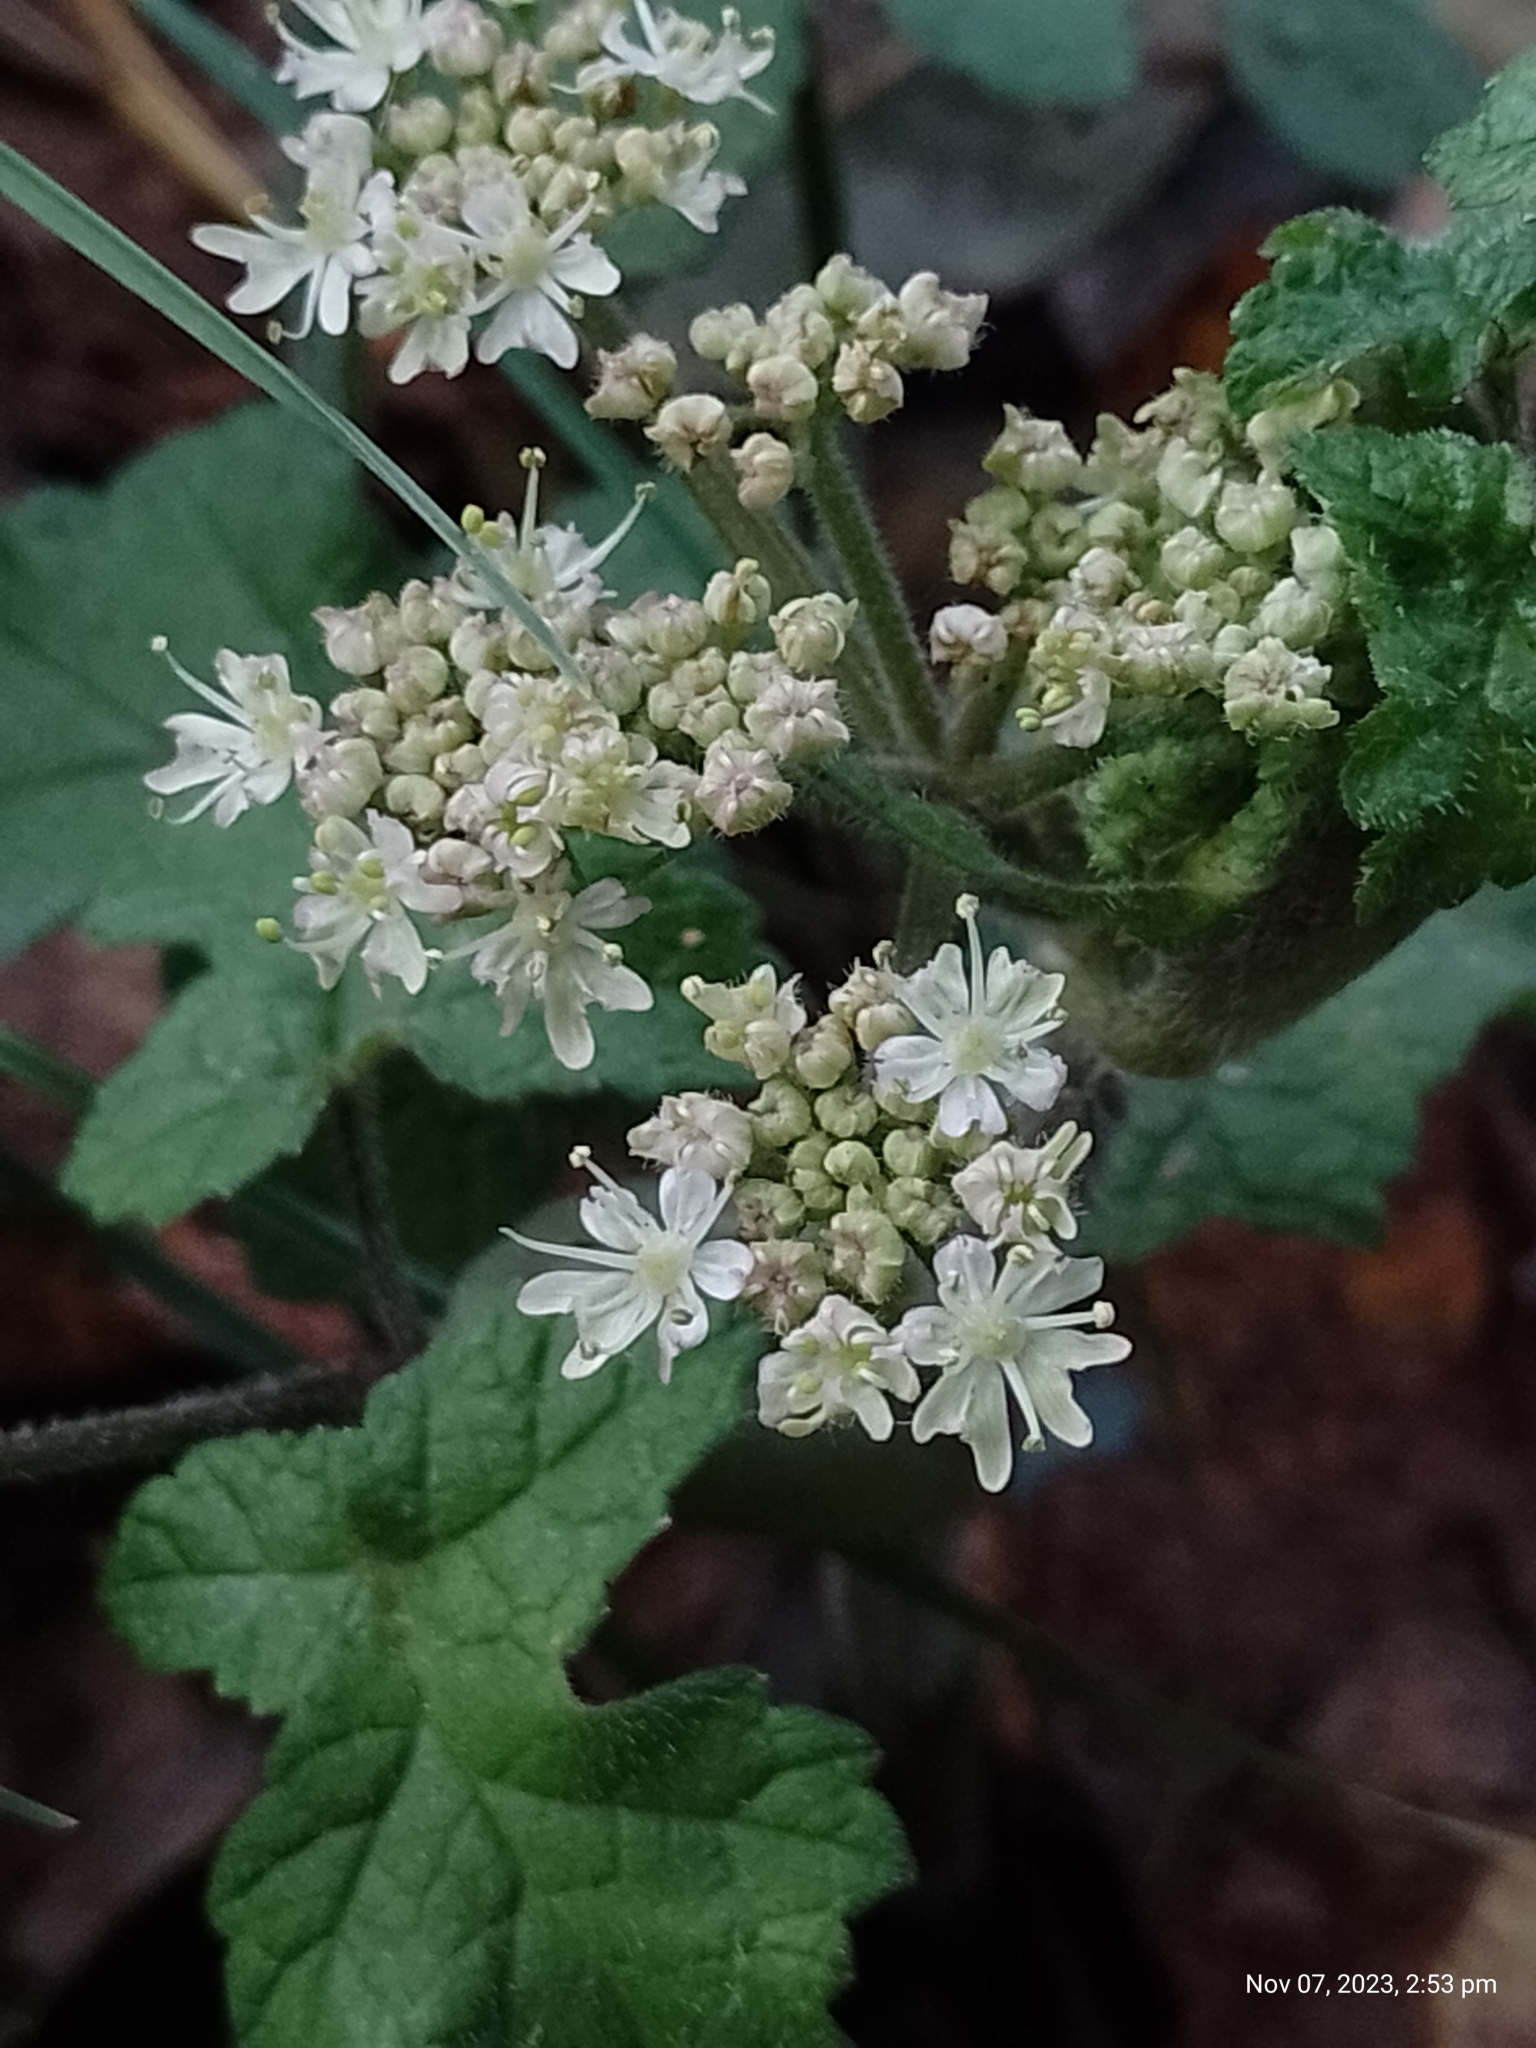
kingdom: Plantae
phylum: Tracheophyta
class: Magnoliopsida
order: Apiales
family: Apiaceae
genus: Heracleum
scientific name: Heracleum sphondylium
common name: Hogweed
